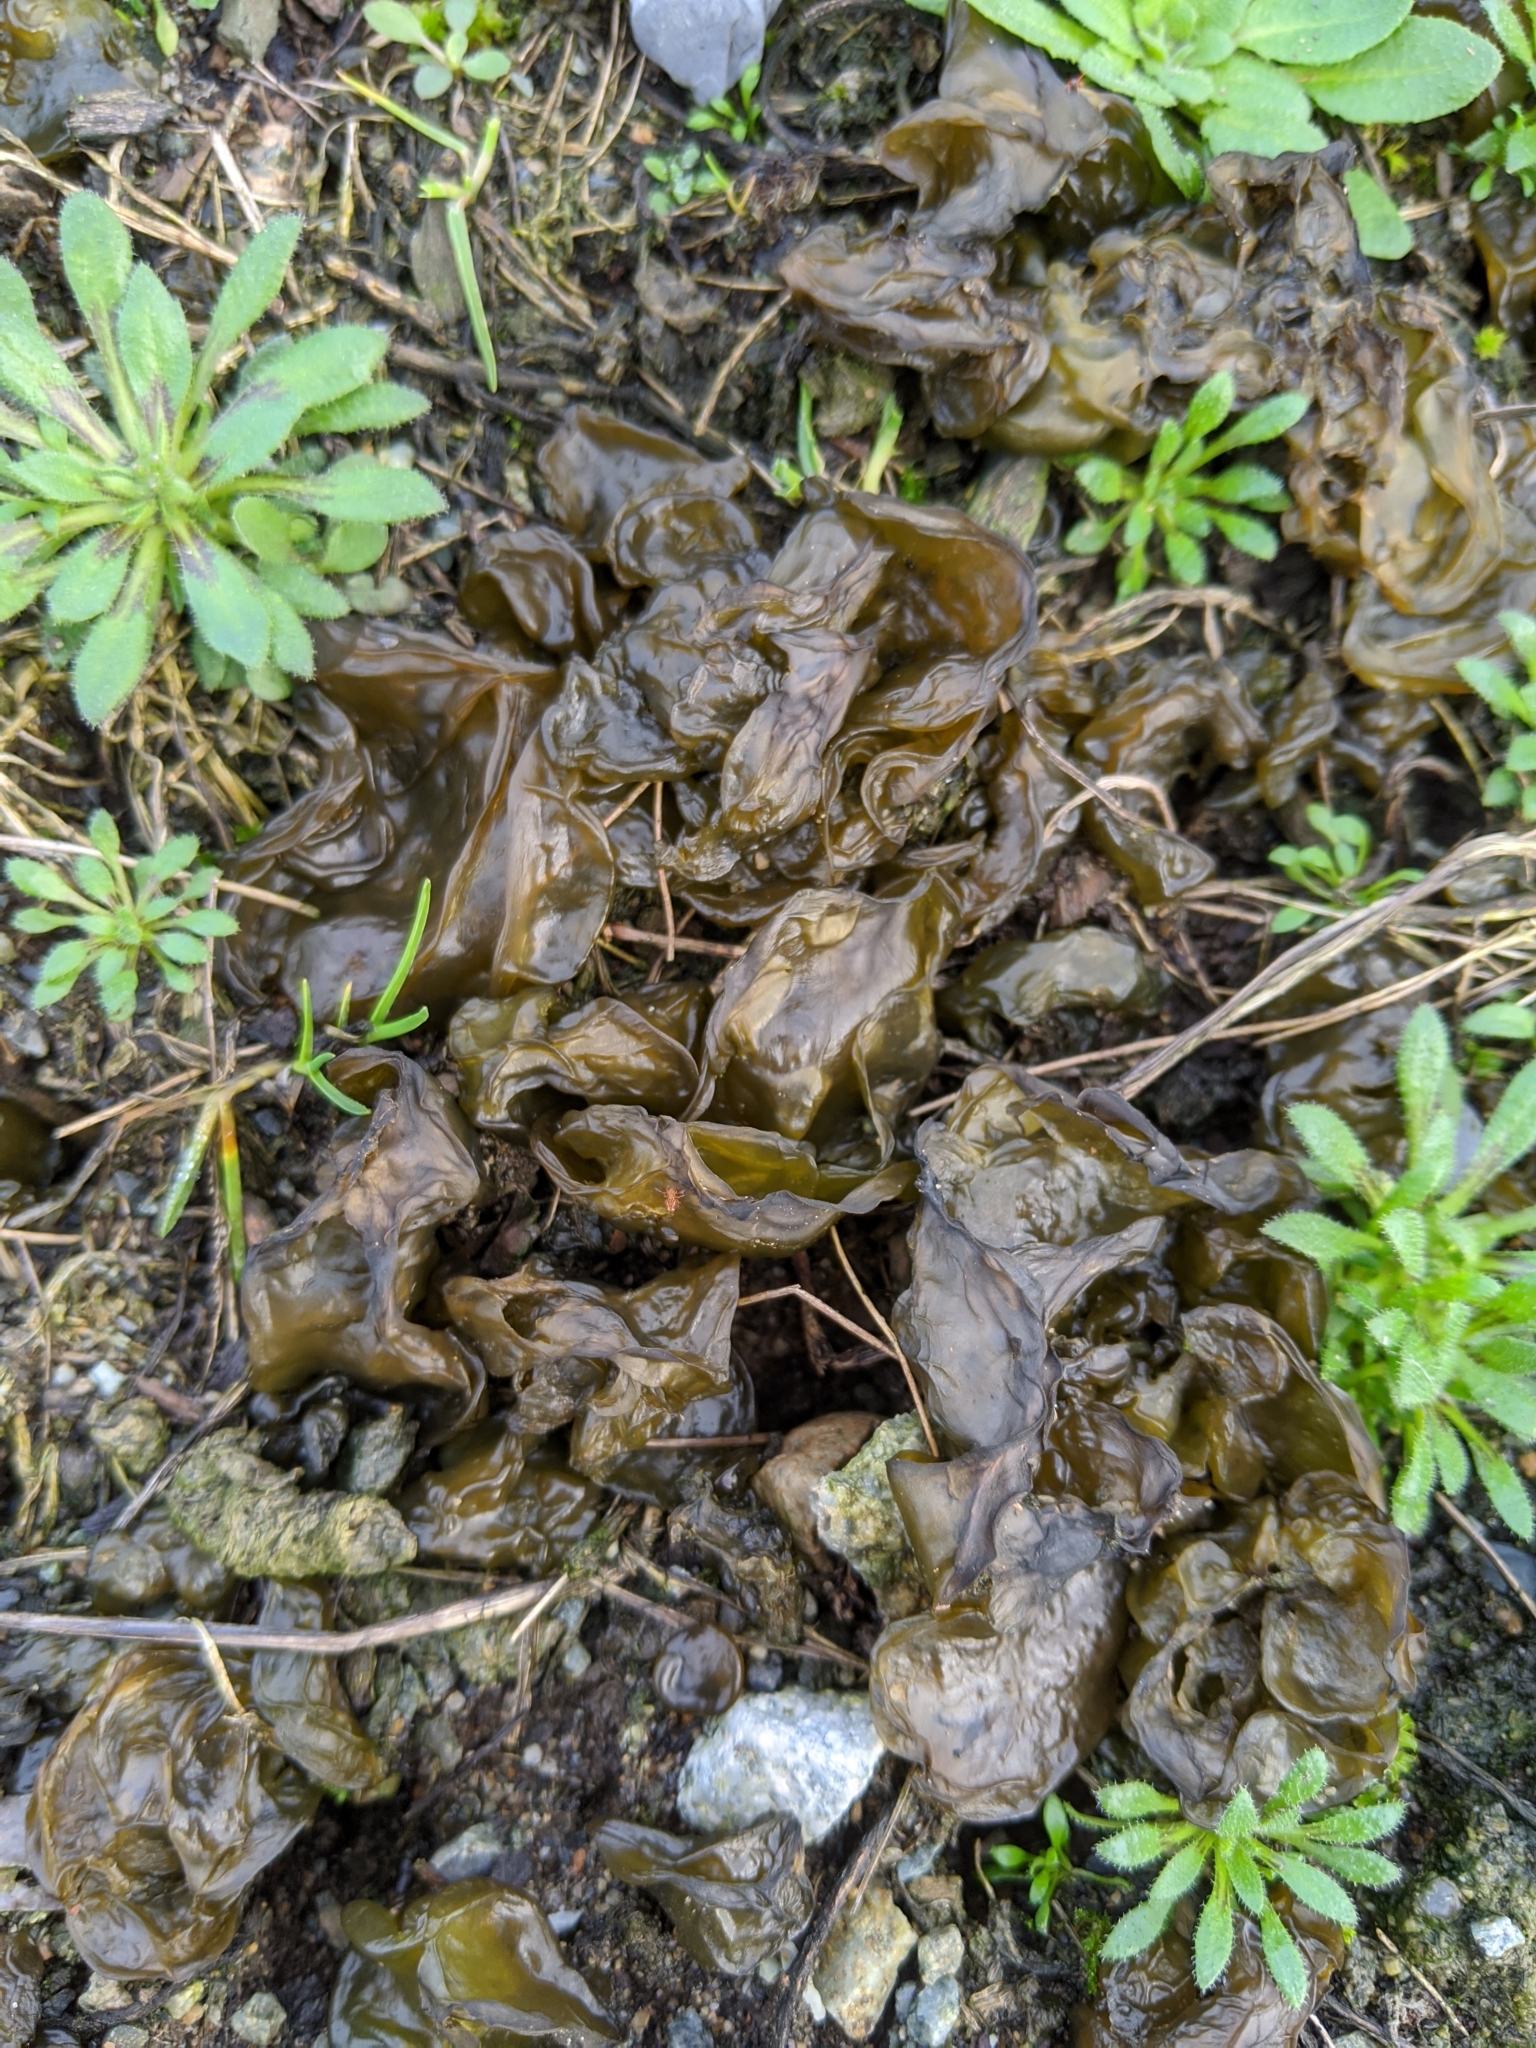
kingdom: Bacteria
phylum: Cyanobacteria
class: Cyanobacteriia
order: Cyanobacteriales
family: Nostocaceae
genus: Nostoc
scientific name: Nostoc commune
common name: Star jelly
